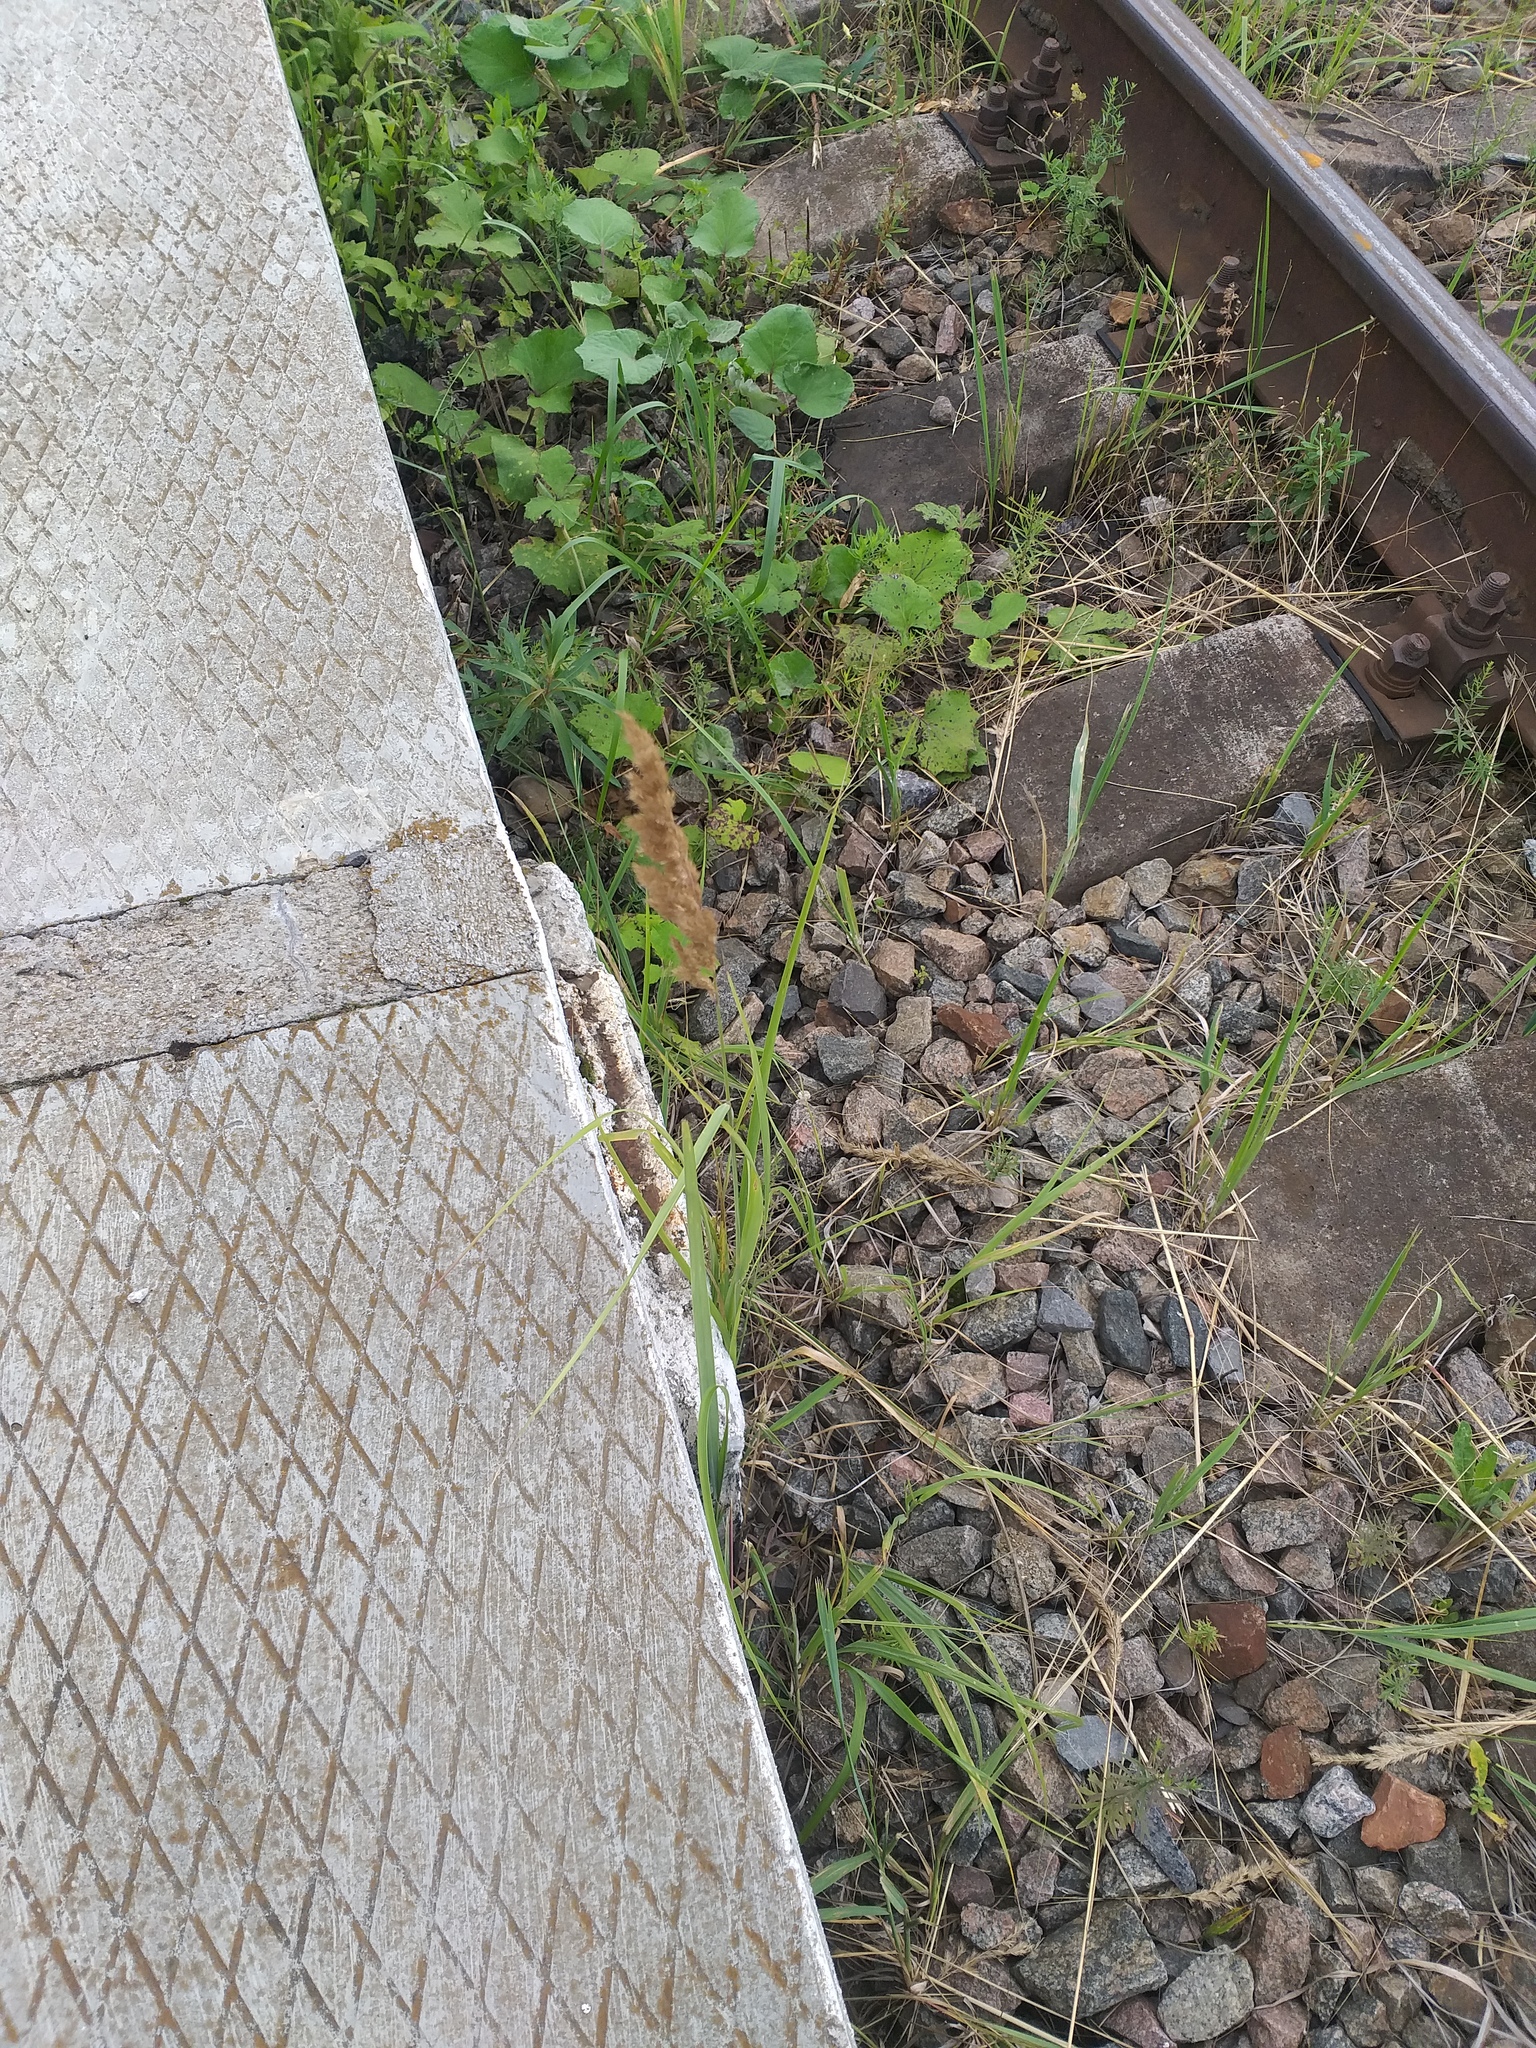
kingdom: Plantae
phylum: Tracheophyta
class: Liliopsida
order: Poales
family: Poaceae
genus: Calamagrostis
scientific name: Calamagrostis epigejos
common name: Wood small-reed
